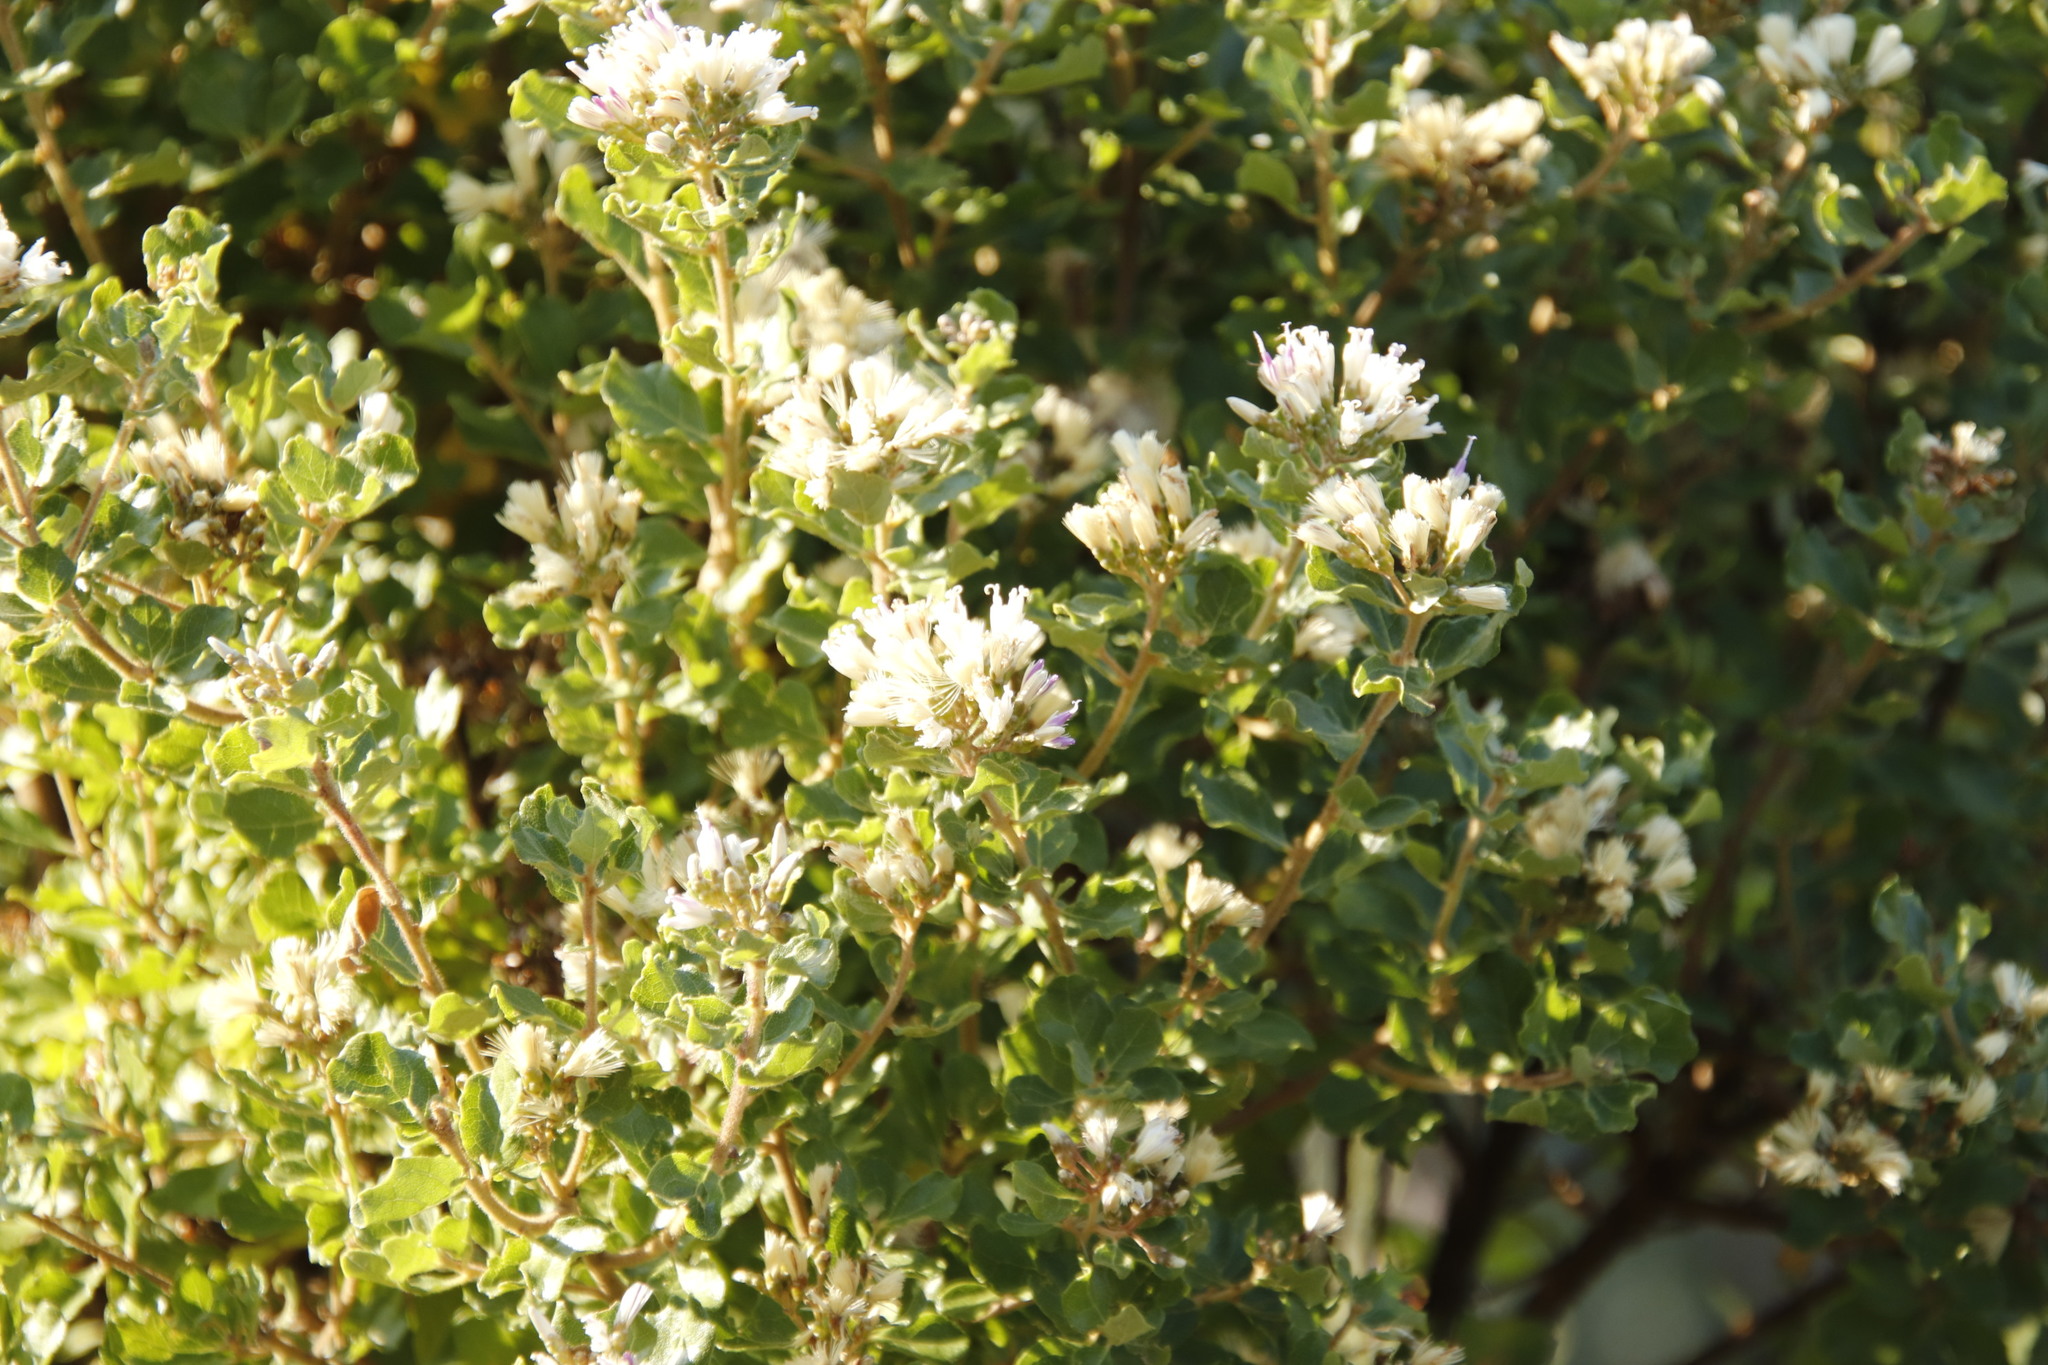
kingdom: Plantae
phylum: Tracheophyta
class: Magnoliopsida
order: Asterales
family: Asteraceae
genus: Gymnanthemum
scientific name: Gymnanthemum triflorum
